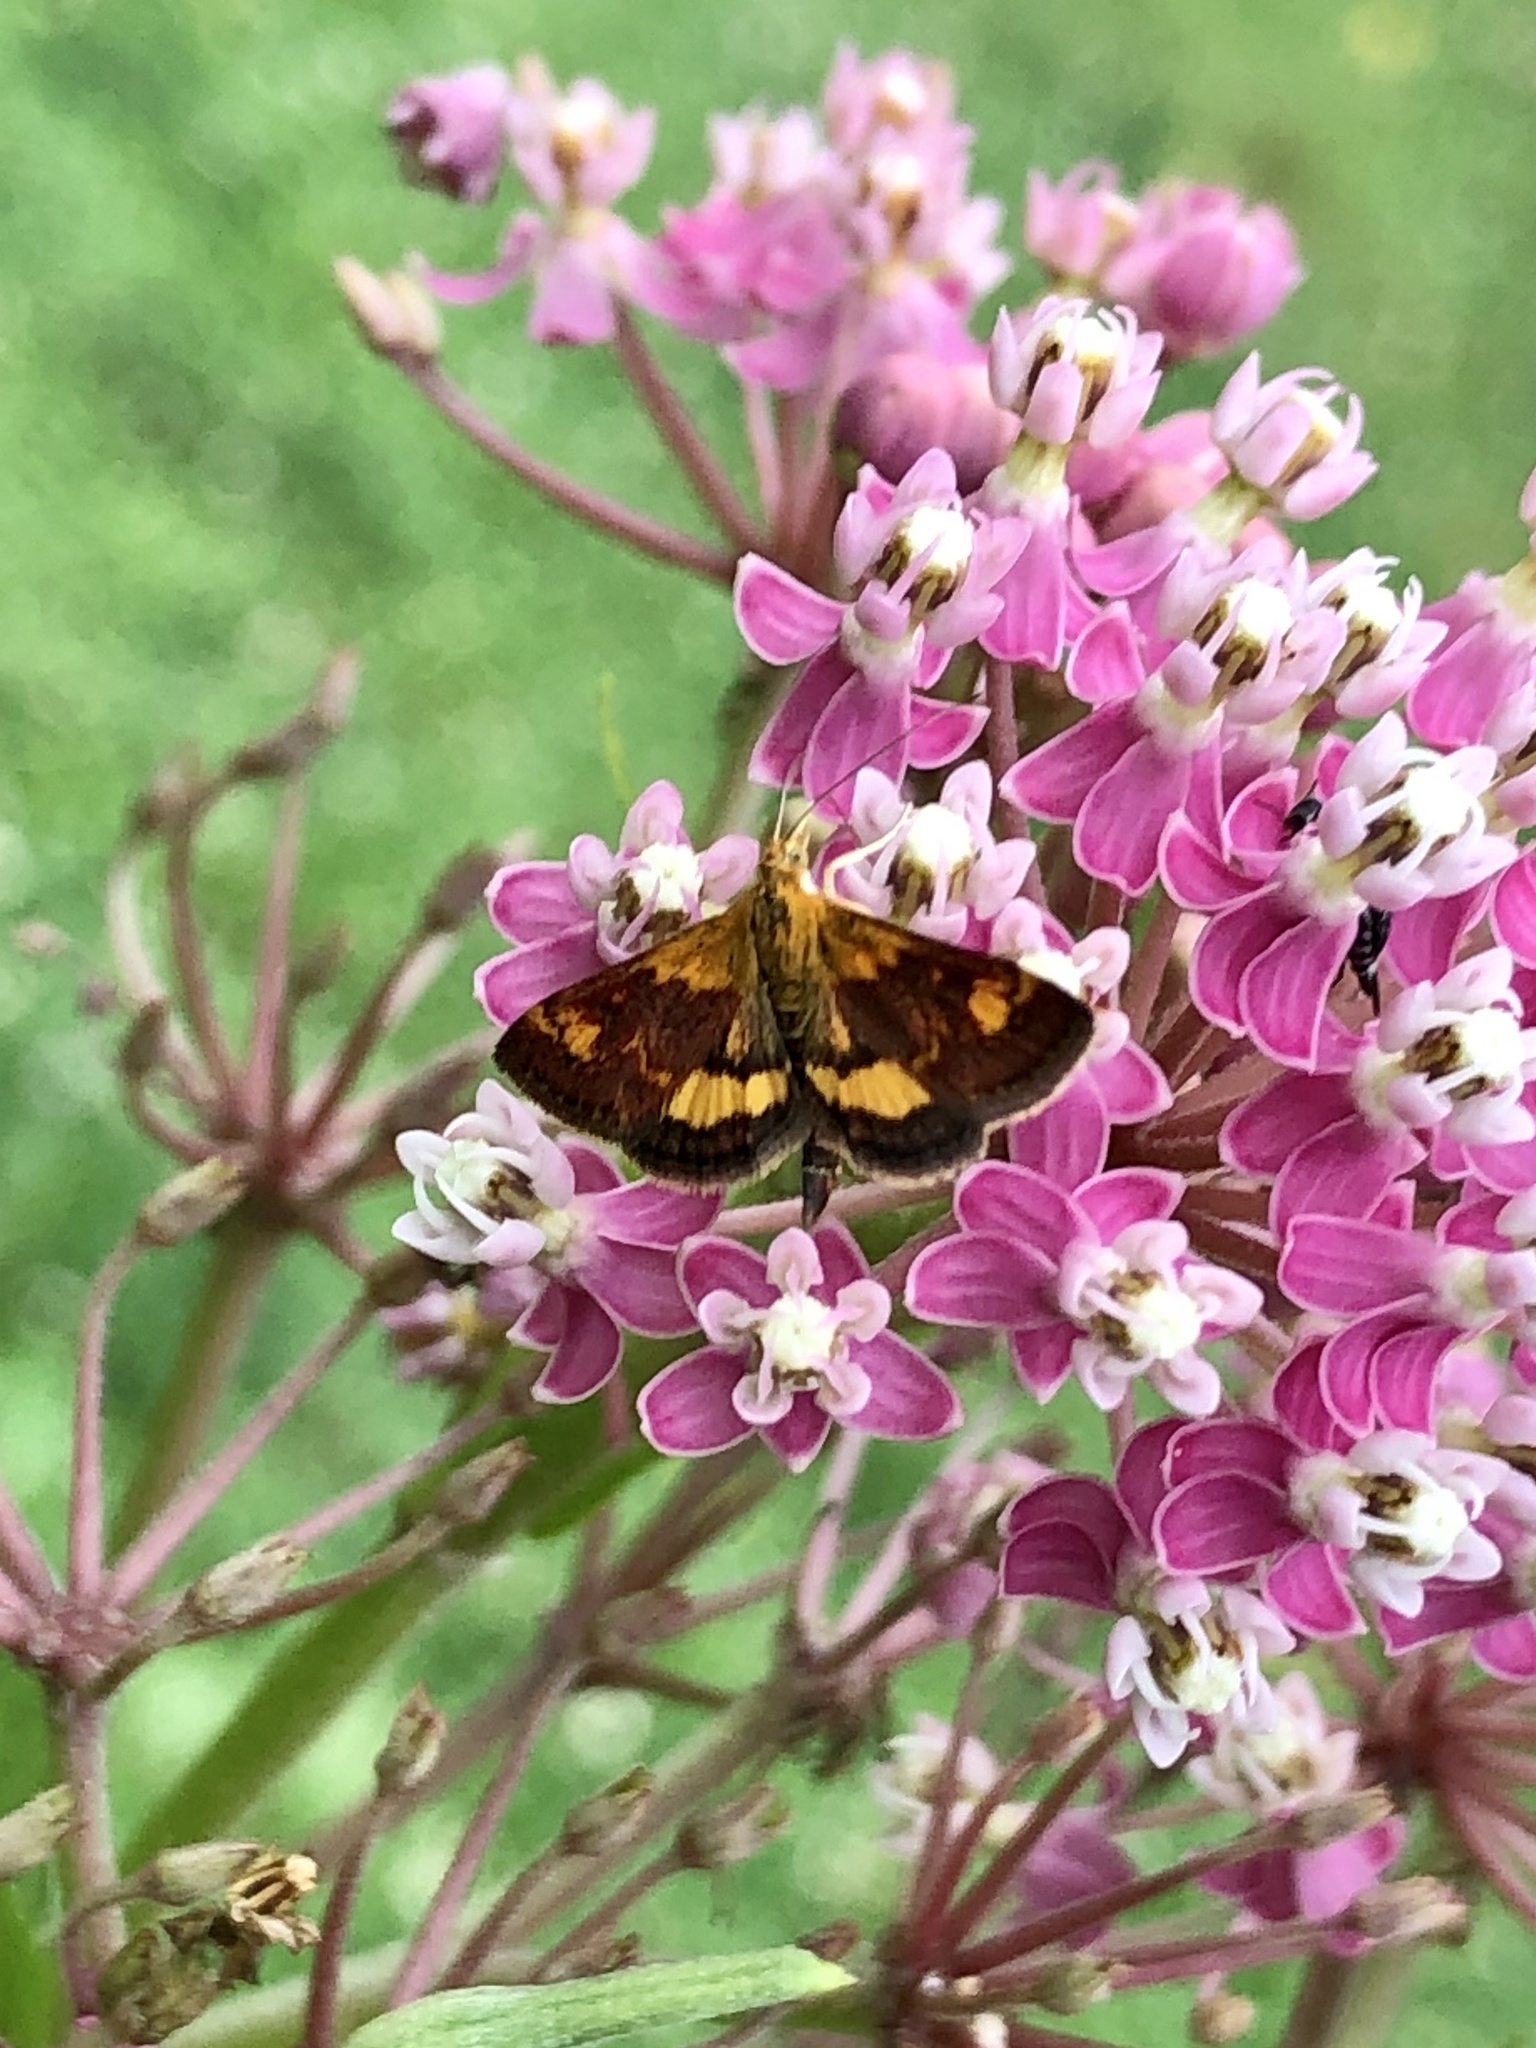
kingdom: Animalia
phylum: Arthropoda
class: Insecta
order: Lepidoptera
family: Crambidae
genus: Pyrausta
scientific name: Pyrausta orphisalis
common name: Orange mint moth
